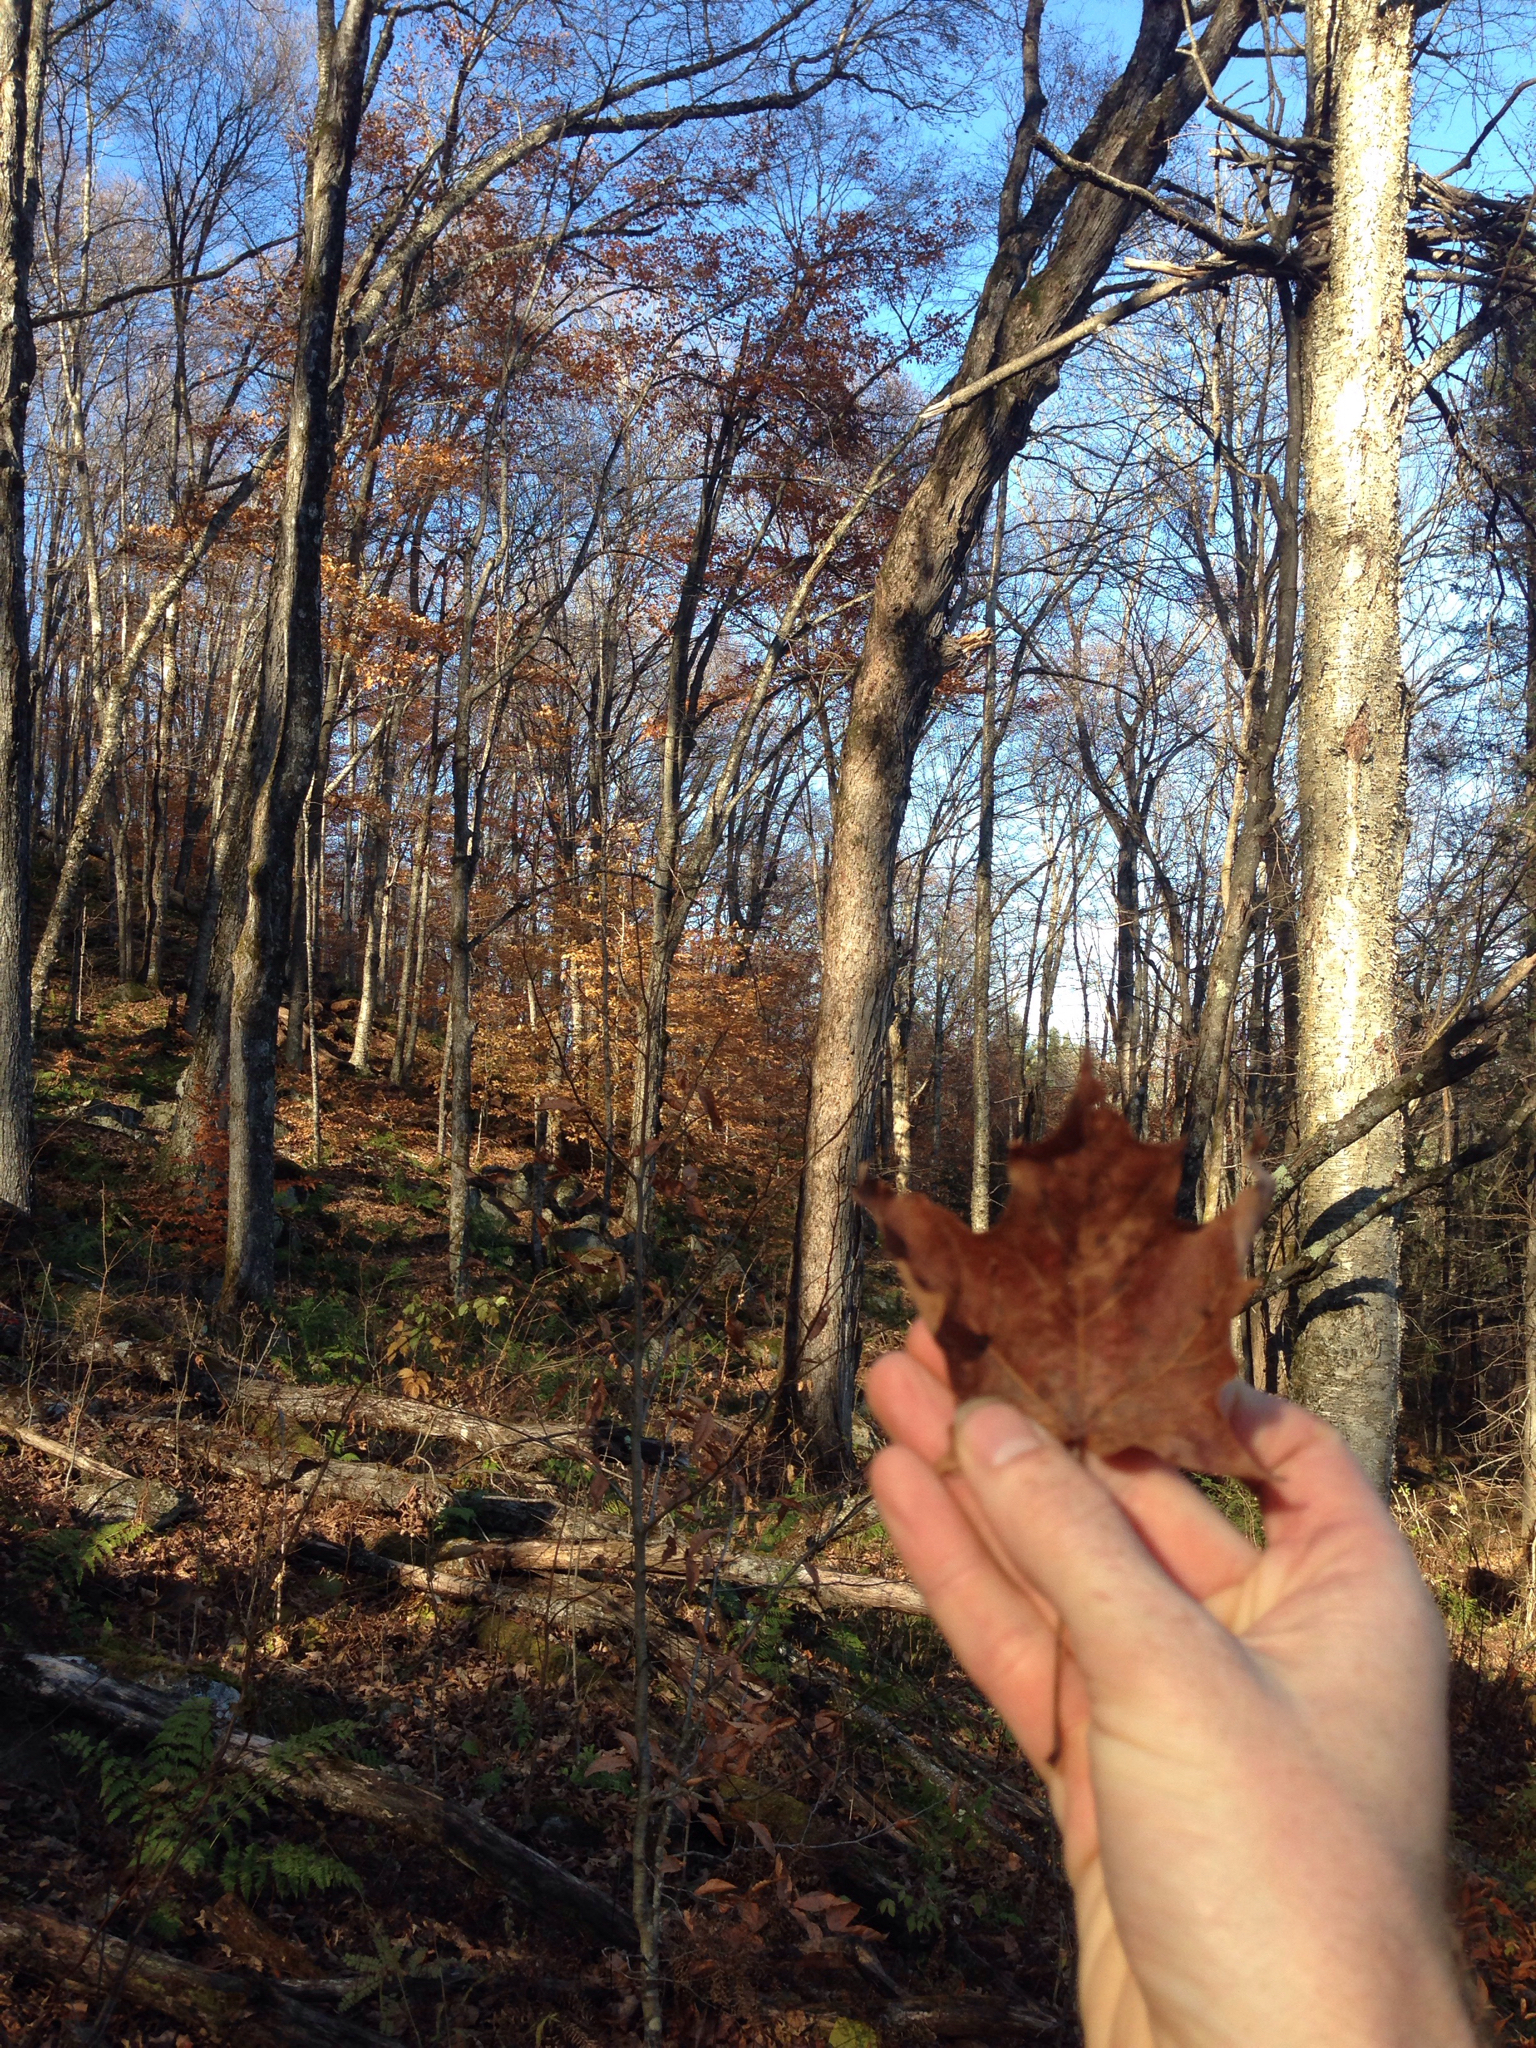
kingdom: Plantae
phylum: Tracheophyta
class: Magnoliopsida
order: Sapindales
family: Sapindaceae
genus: Acer
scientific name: Acer saccharum
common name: Sugar maple
